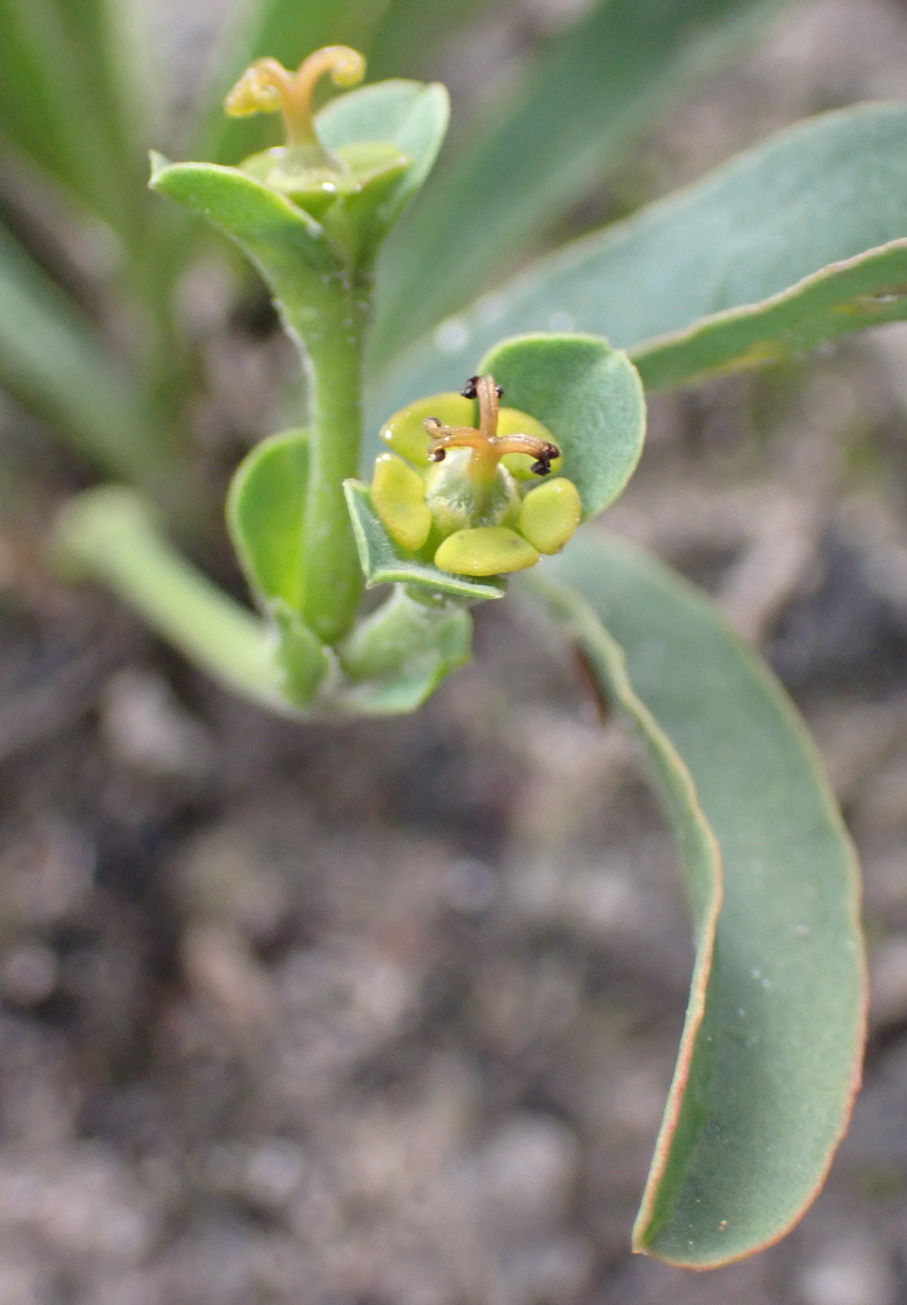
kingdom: Plantae
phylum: Tracheophyta
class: Magnoliopsida
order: Malpighiales
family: Euphorbiaceae
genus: Euphorbia
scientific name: Euphorbia silenifolia
